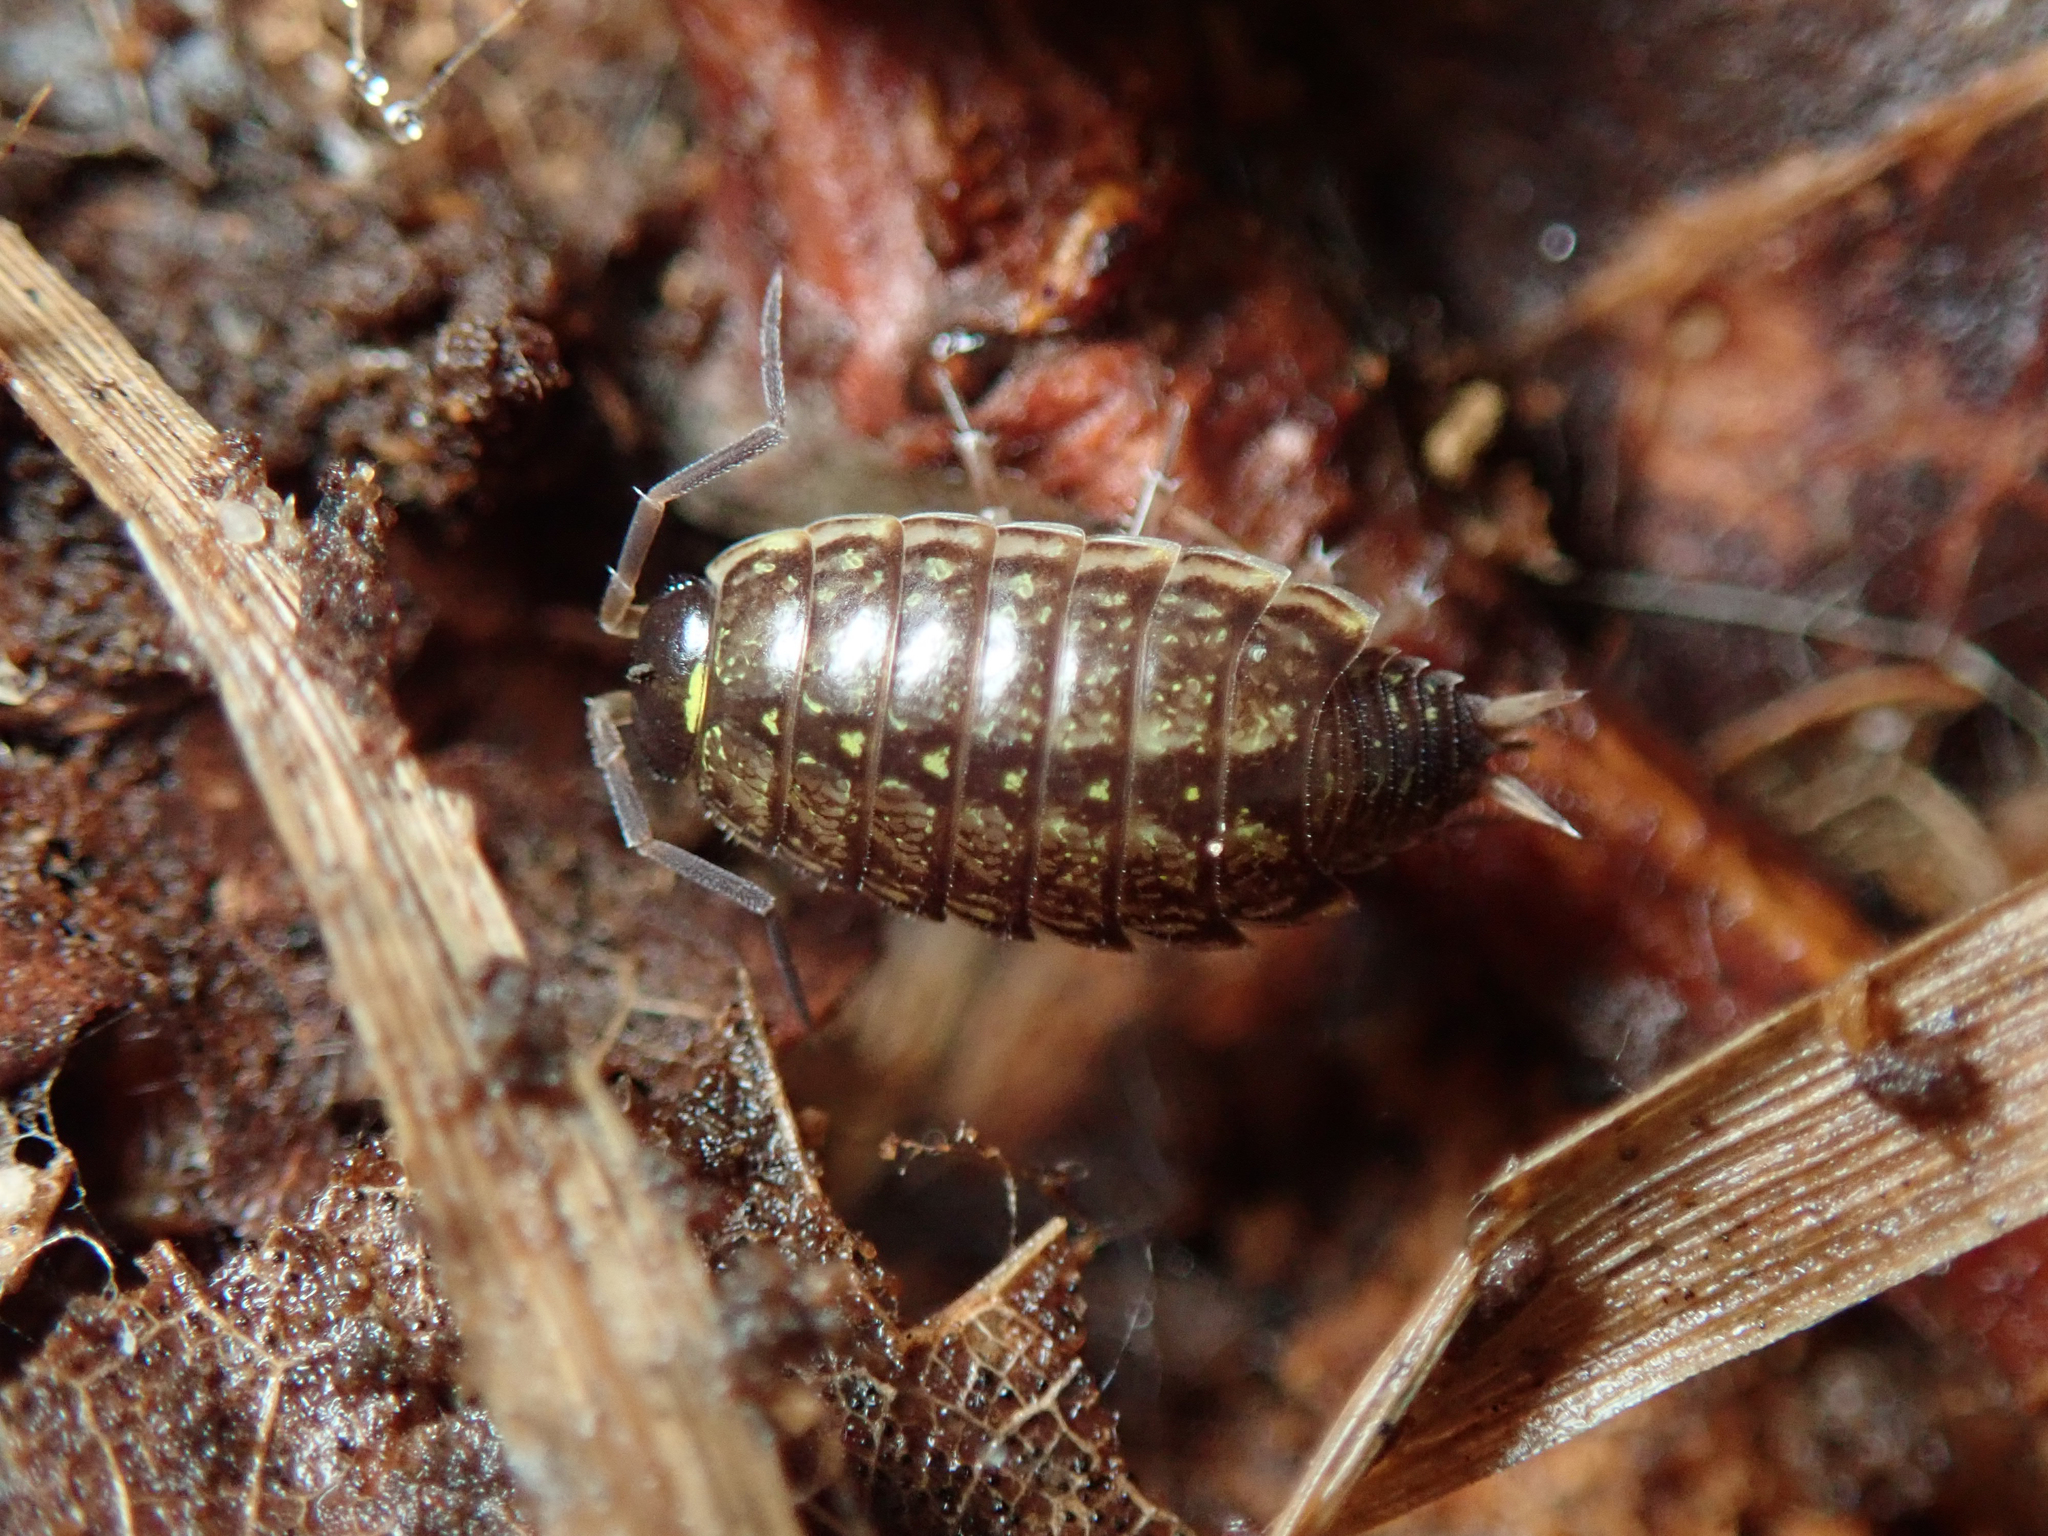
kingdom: Animalia
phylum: Arthropoda
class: Malacostraca
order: Isopoda
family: Philosciidae
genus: Philoscia
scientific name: Philoscia muscorum
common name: Common striped woodlouse
